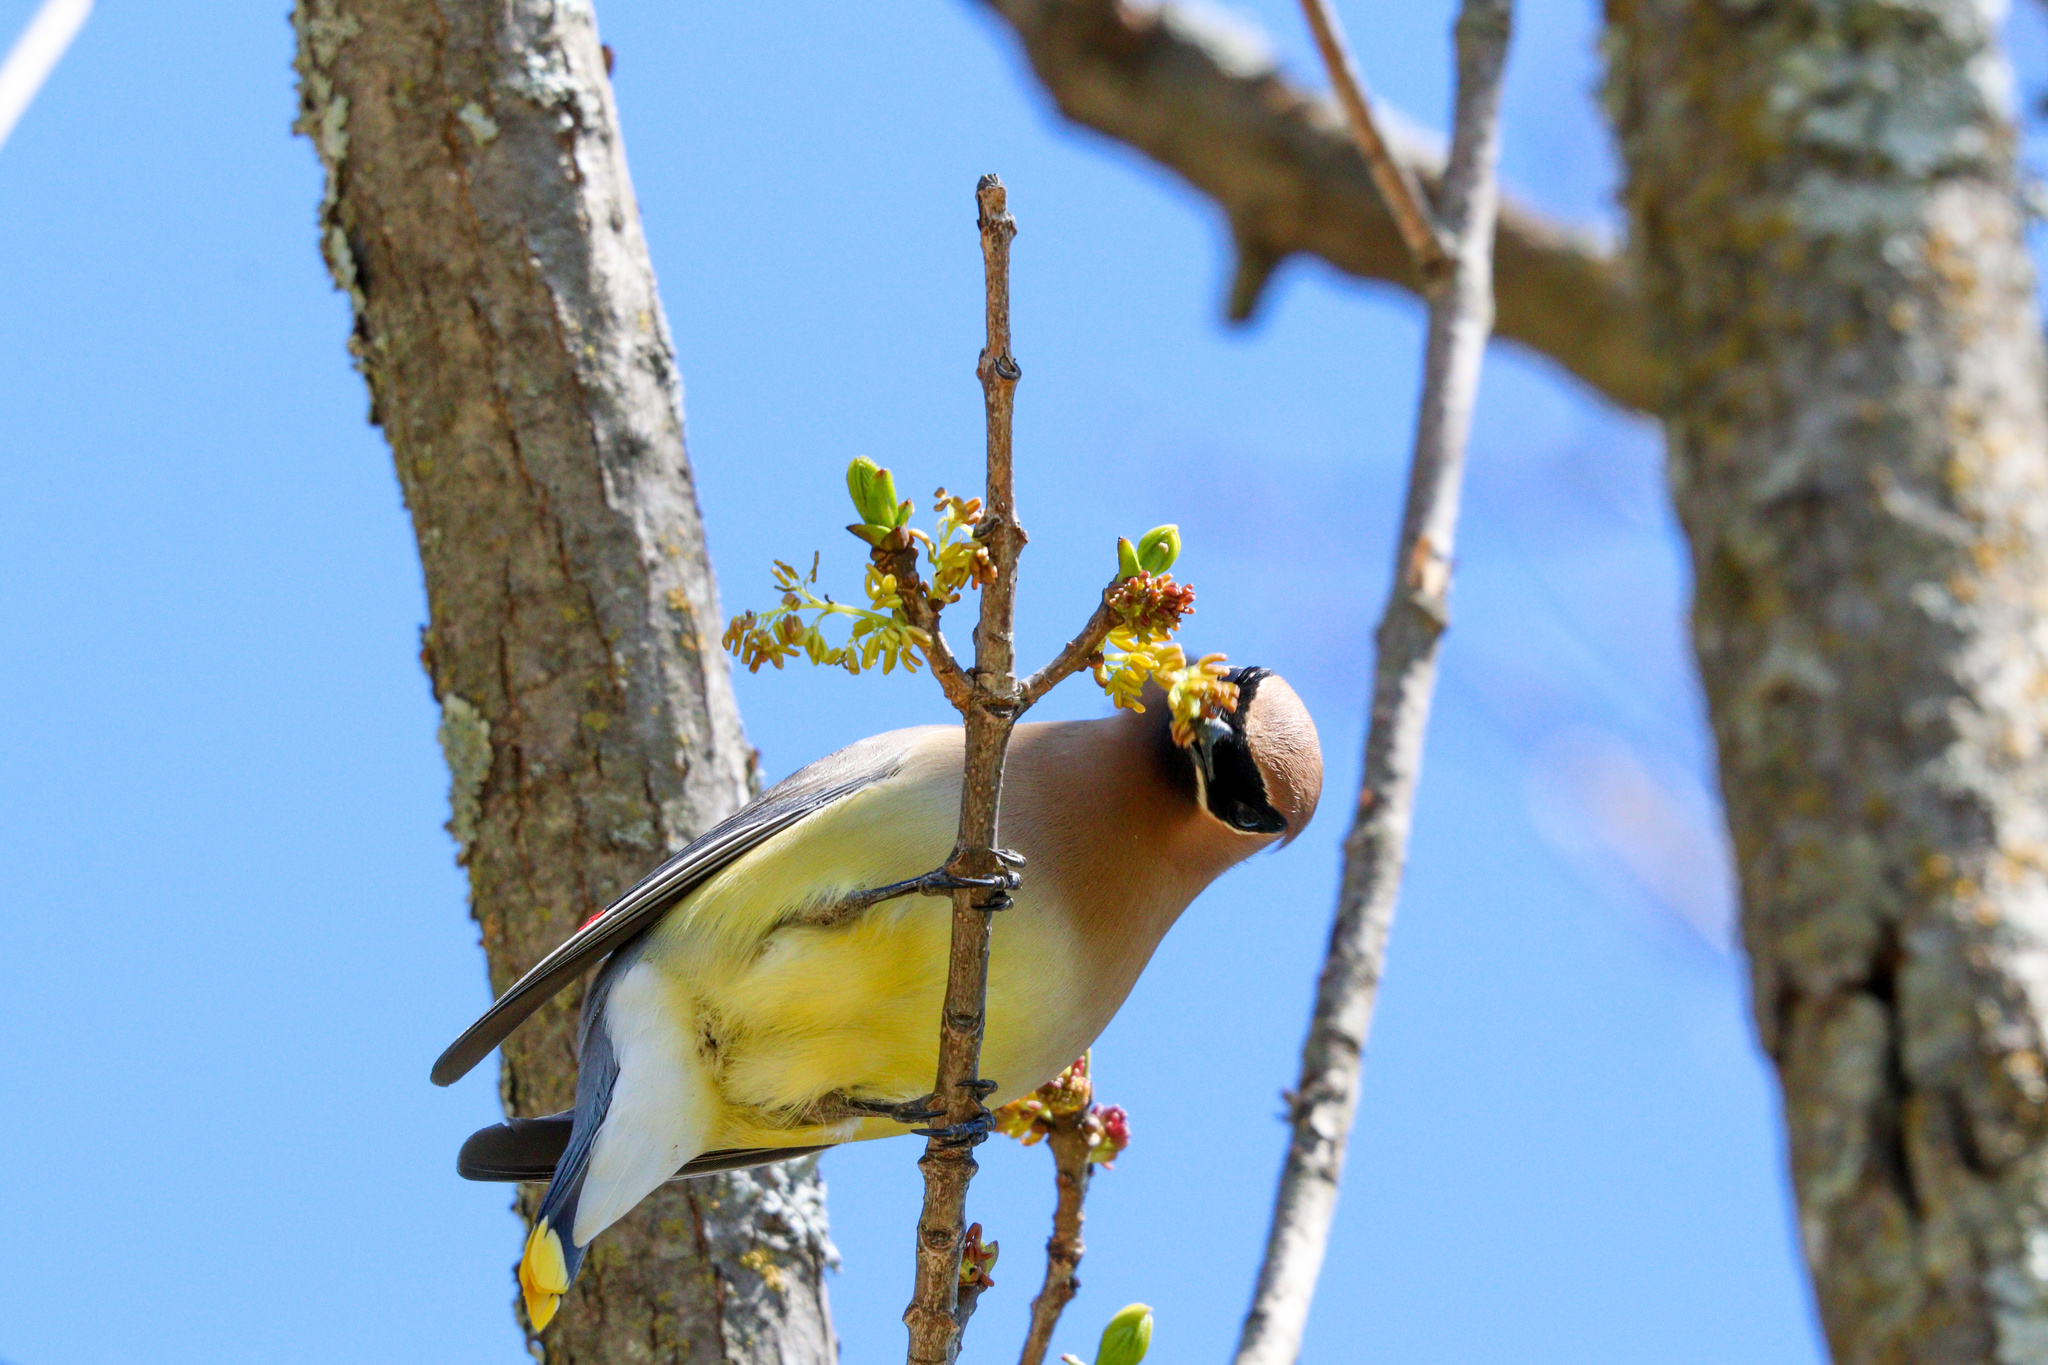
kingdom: Animalia
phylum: Chordata
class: Aves
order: Passeriformes
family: Bombycillidae
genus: Bombycilla
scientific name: Bombycilla cedrorum
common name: Cedar waxwing
